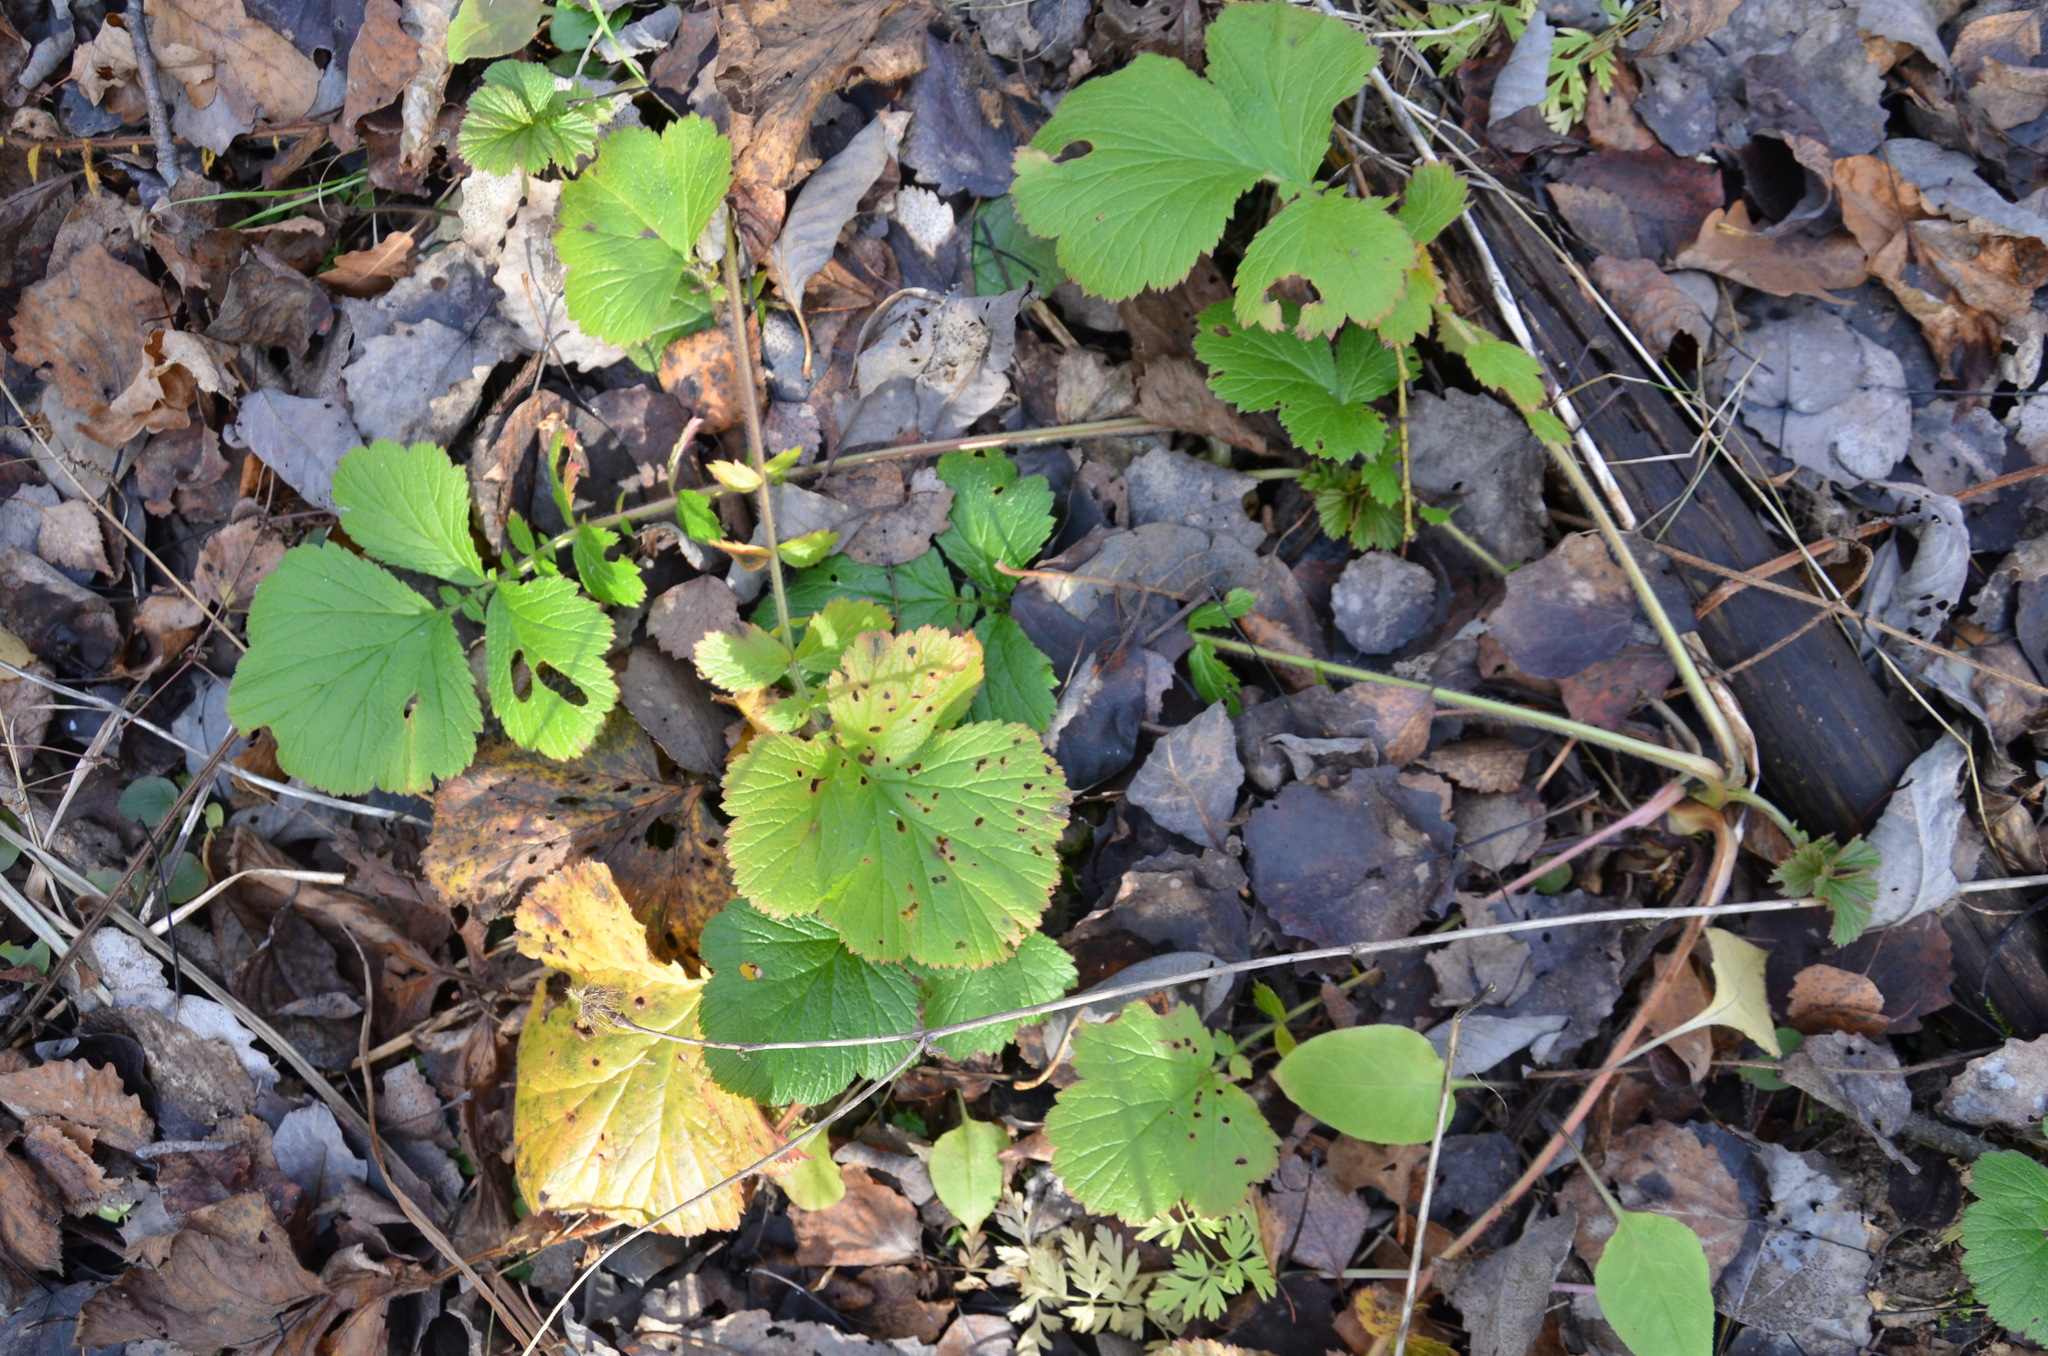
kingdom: Plantae
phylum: Tracheophyta
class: Magnoliopsida
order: Rosales
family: Rosaceae
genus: Geum
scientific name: Geum
